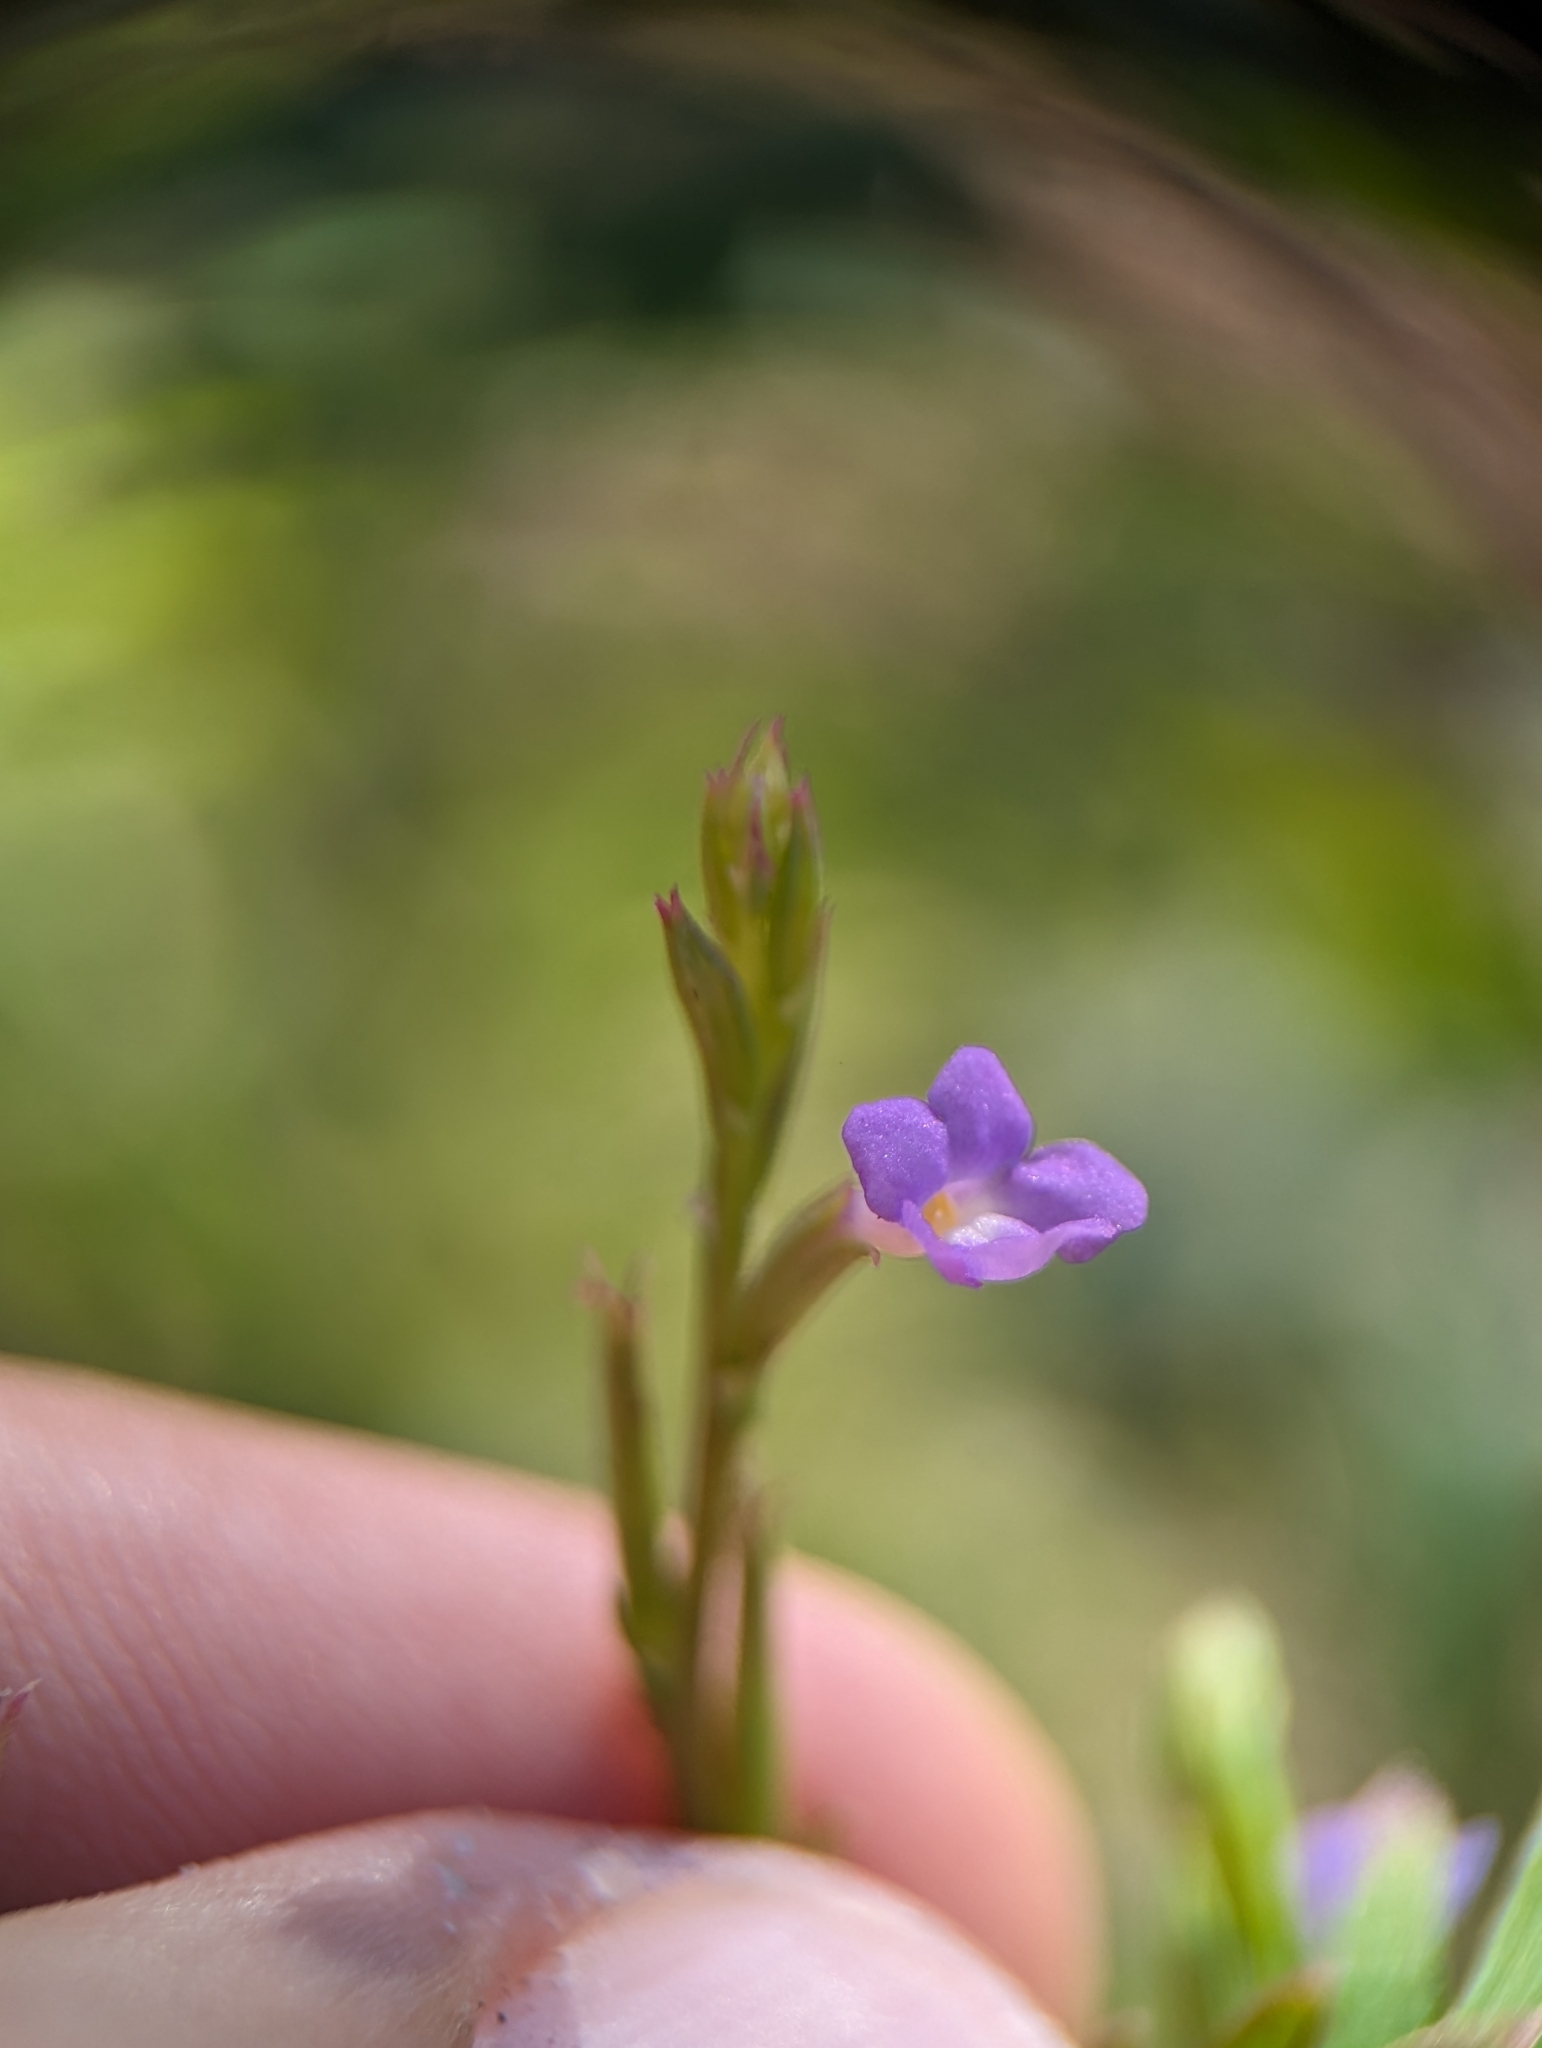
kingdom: Plantae
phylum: Tracheophyta
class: Magnoliopsida
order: Lamiales
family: Verbenaceae
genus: Bouchea
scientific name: Bouchea dissecta
